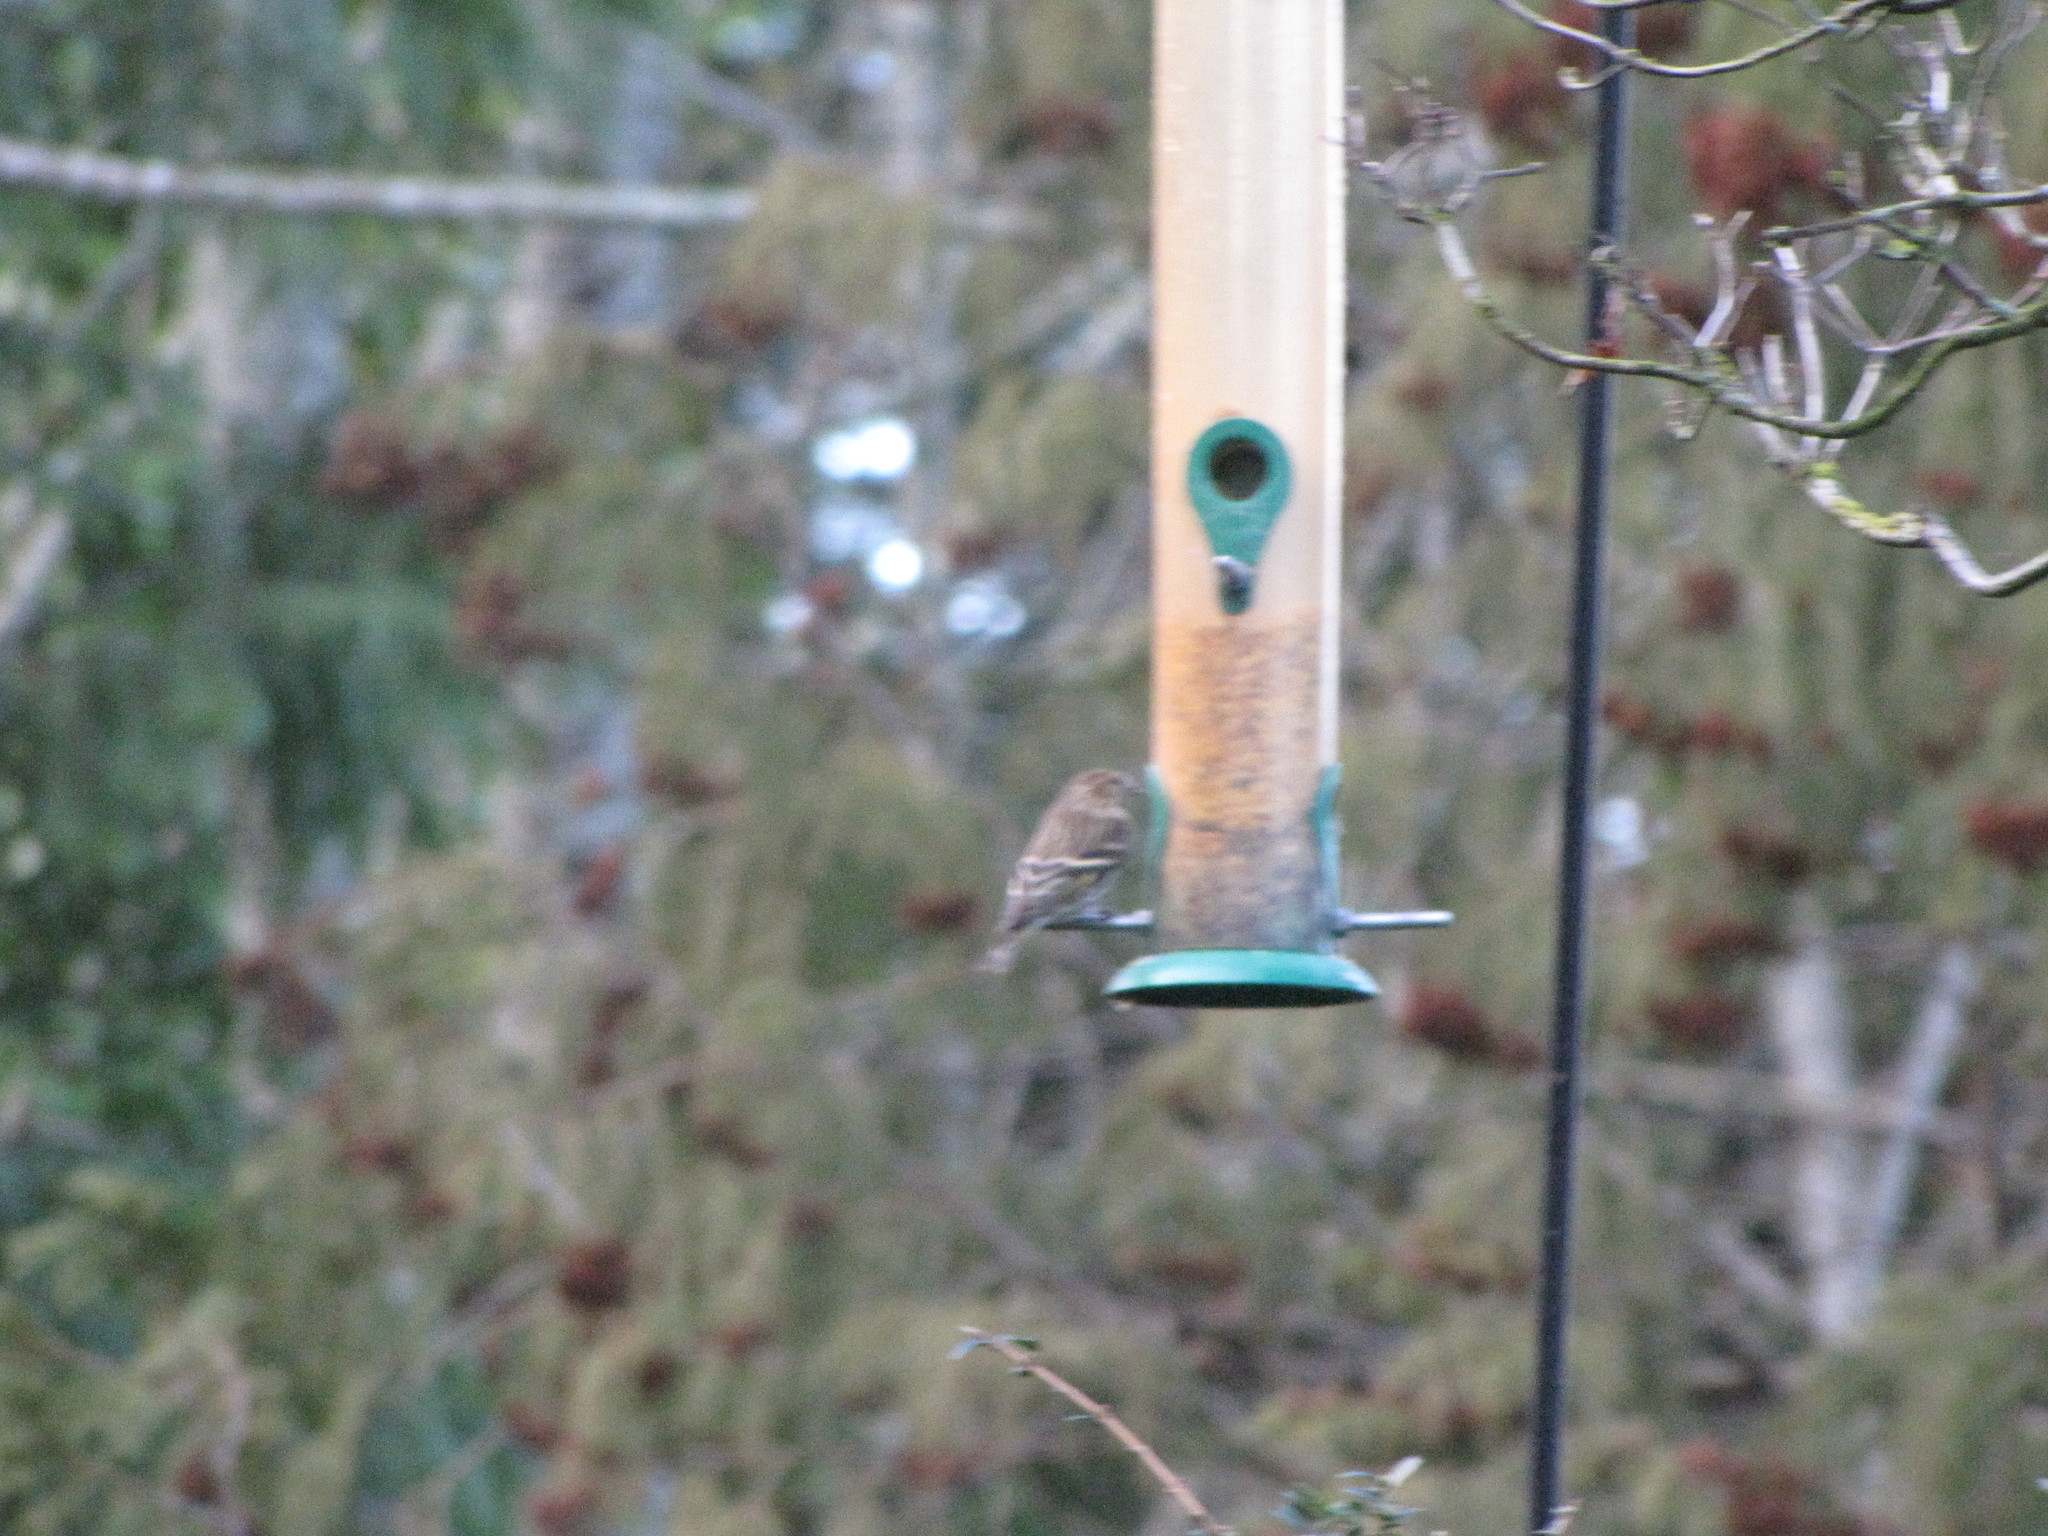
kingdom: Animalia
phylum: Chordata
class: Aves
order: Passeriformes
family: Fringillidae
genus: Spinus
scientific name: Spinus pinus
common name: Pine siskin
